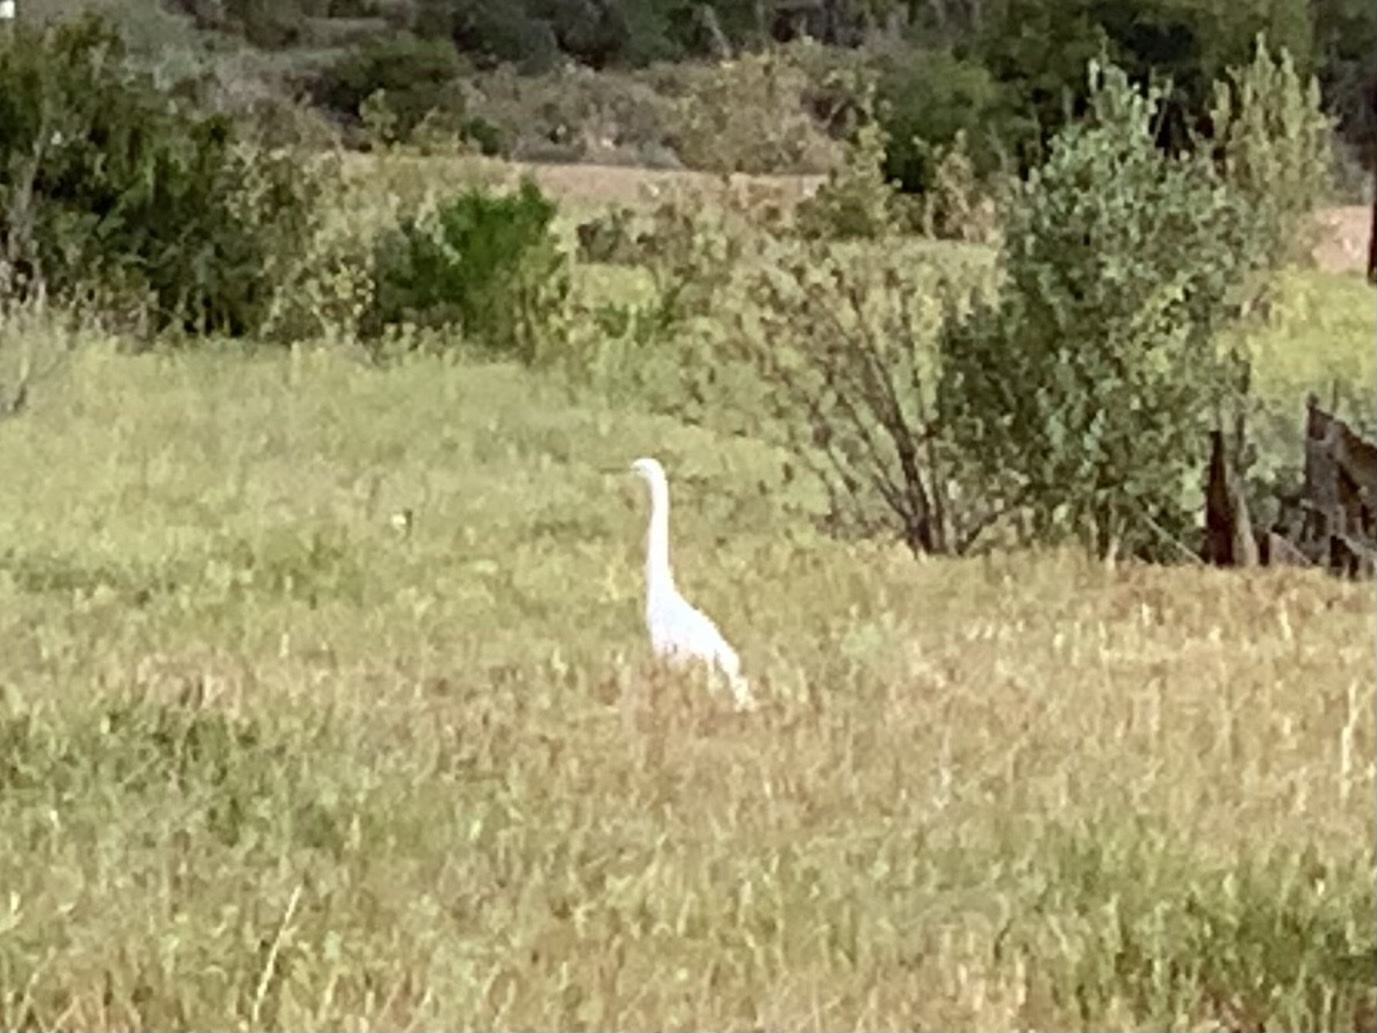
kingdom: Animalia
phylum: Chordata
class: Aves
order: Pelecaniformes
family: Ardeidae
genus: Ardea
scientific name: Ardea alba
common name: Great egret
